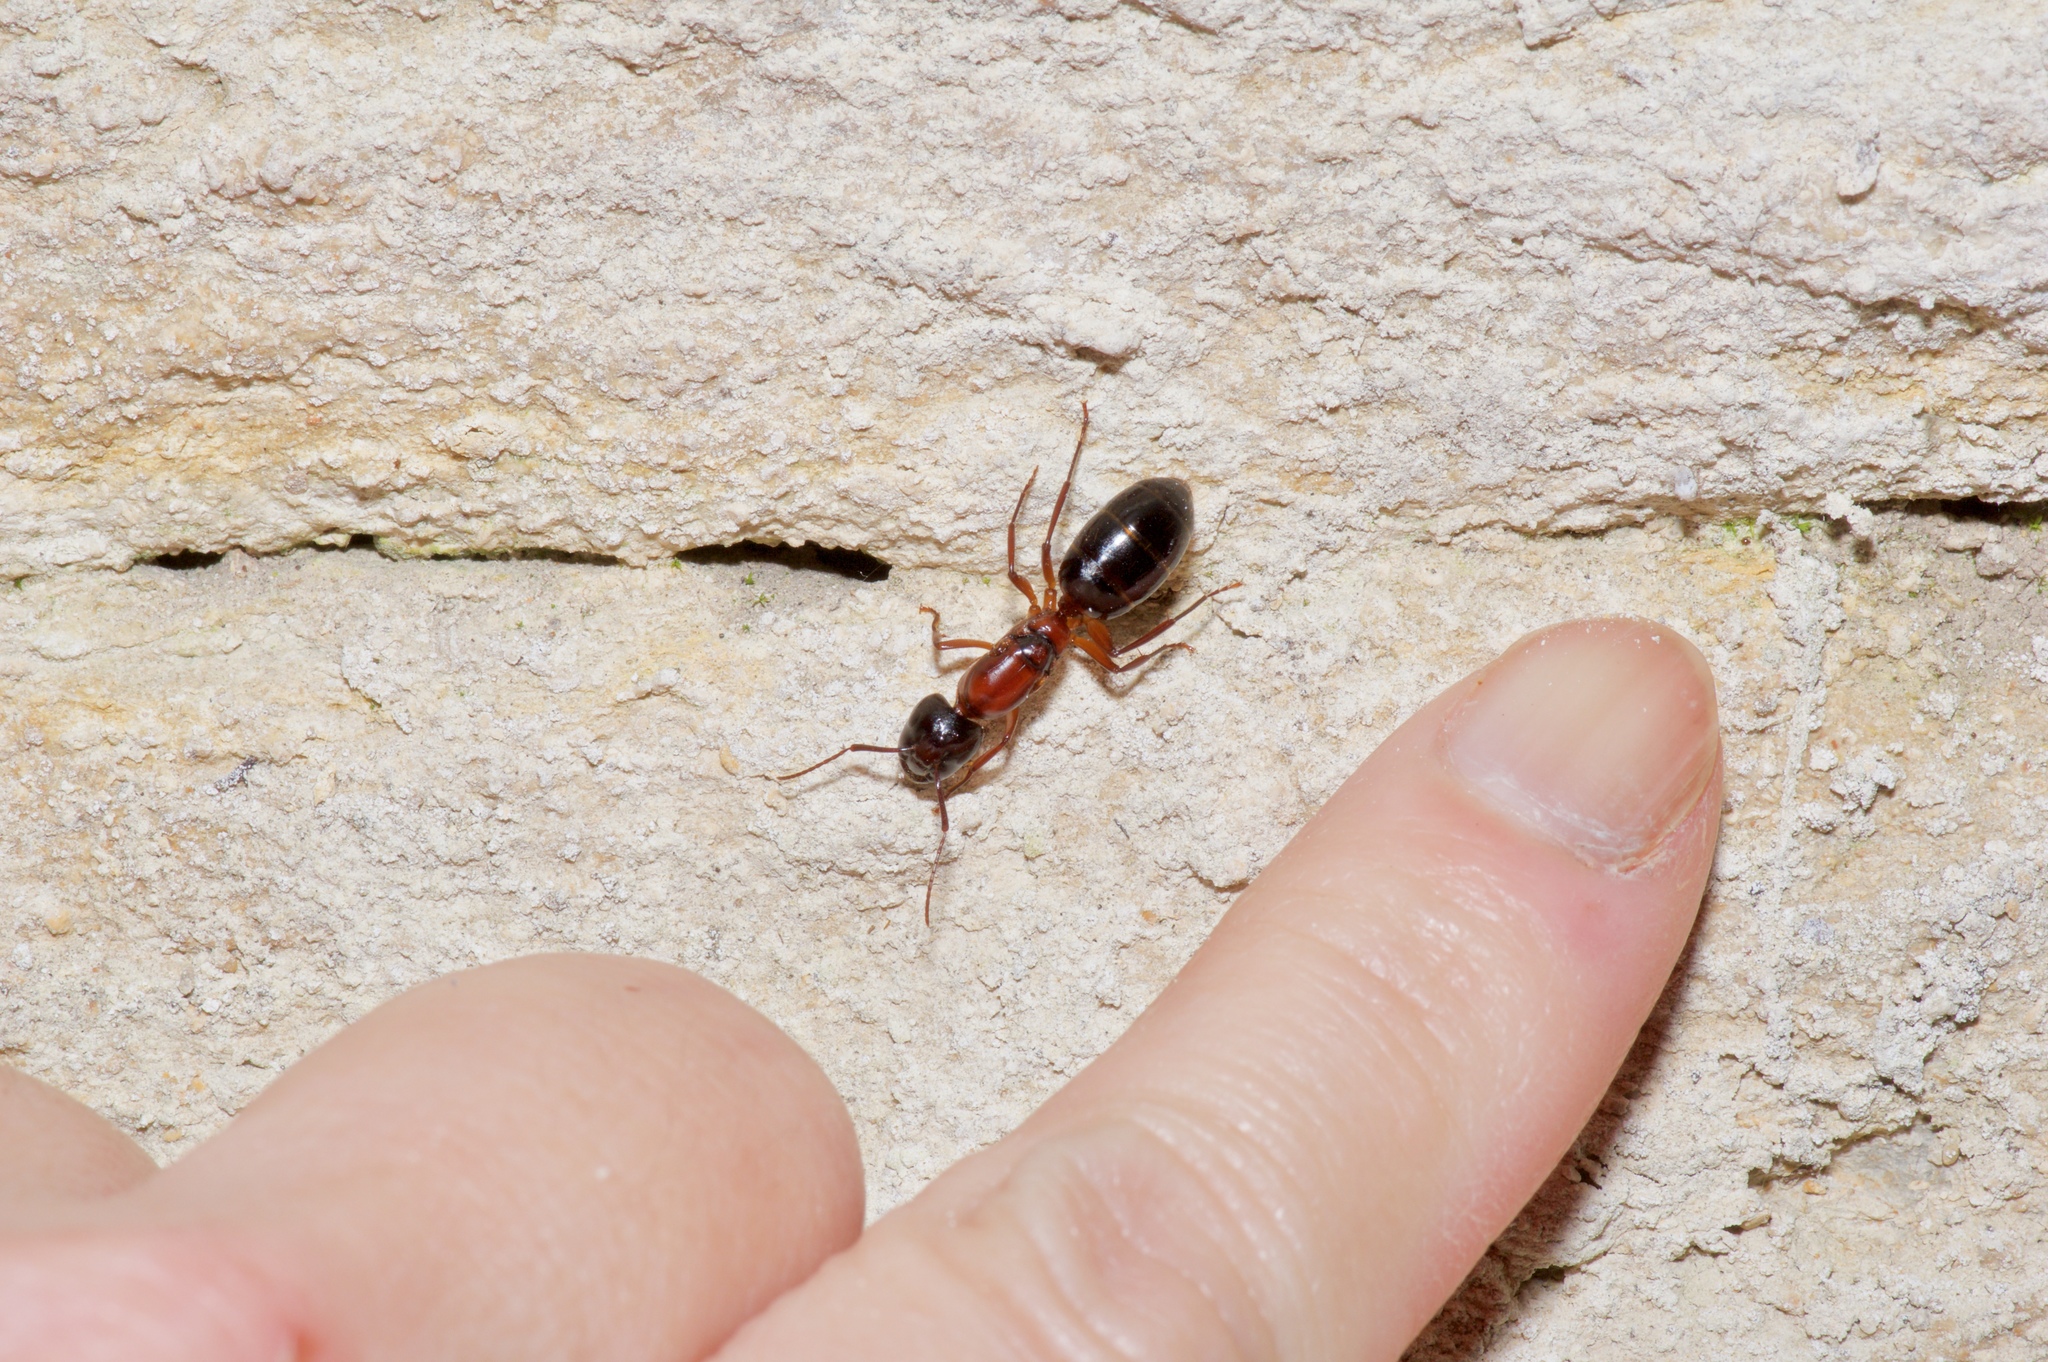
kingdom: Animalia
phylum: Arthropoda
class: Insecta
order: Hymenoptera
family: Formicidae
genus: Camponotus
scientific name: Camponotus texanus
